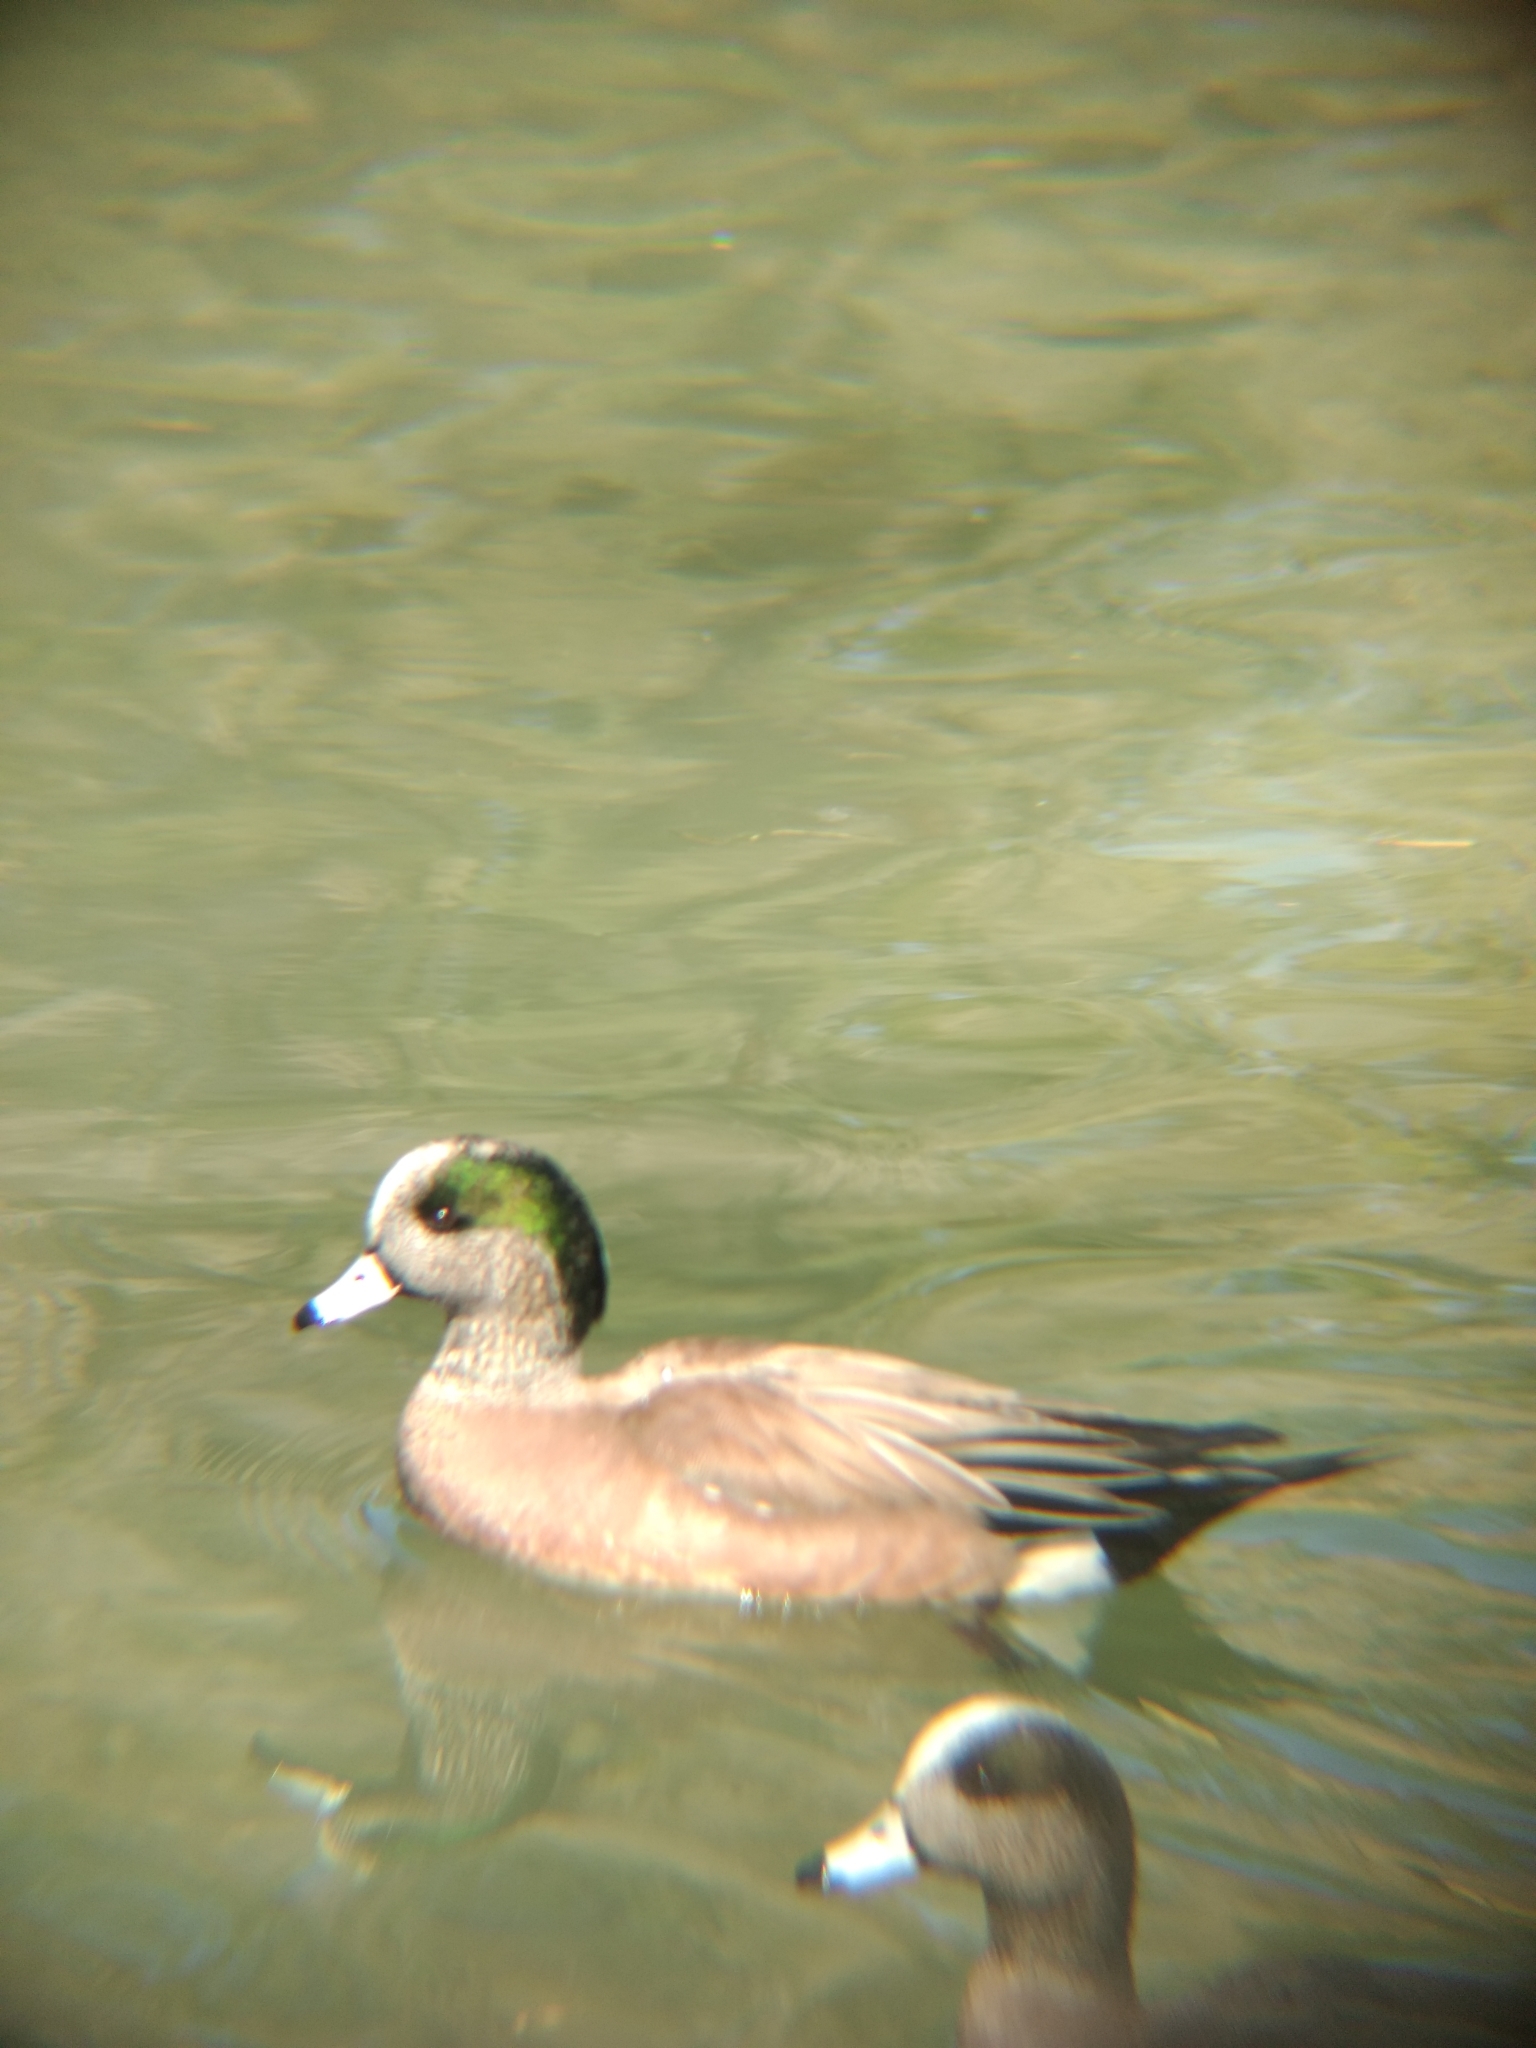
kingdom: Animalia
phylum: Chordata
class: Aves
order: Anseriformes
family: Anatidae
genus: Mareca
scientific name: Mareca americana
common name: American wigeon
